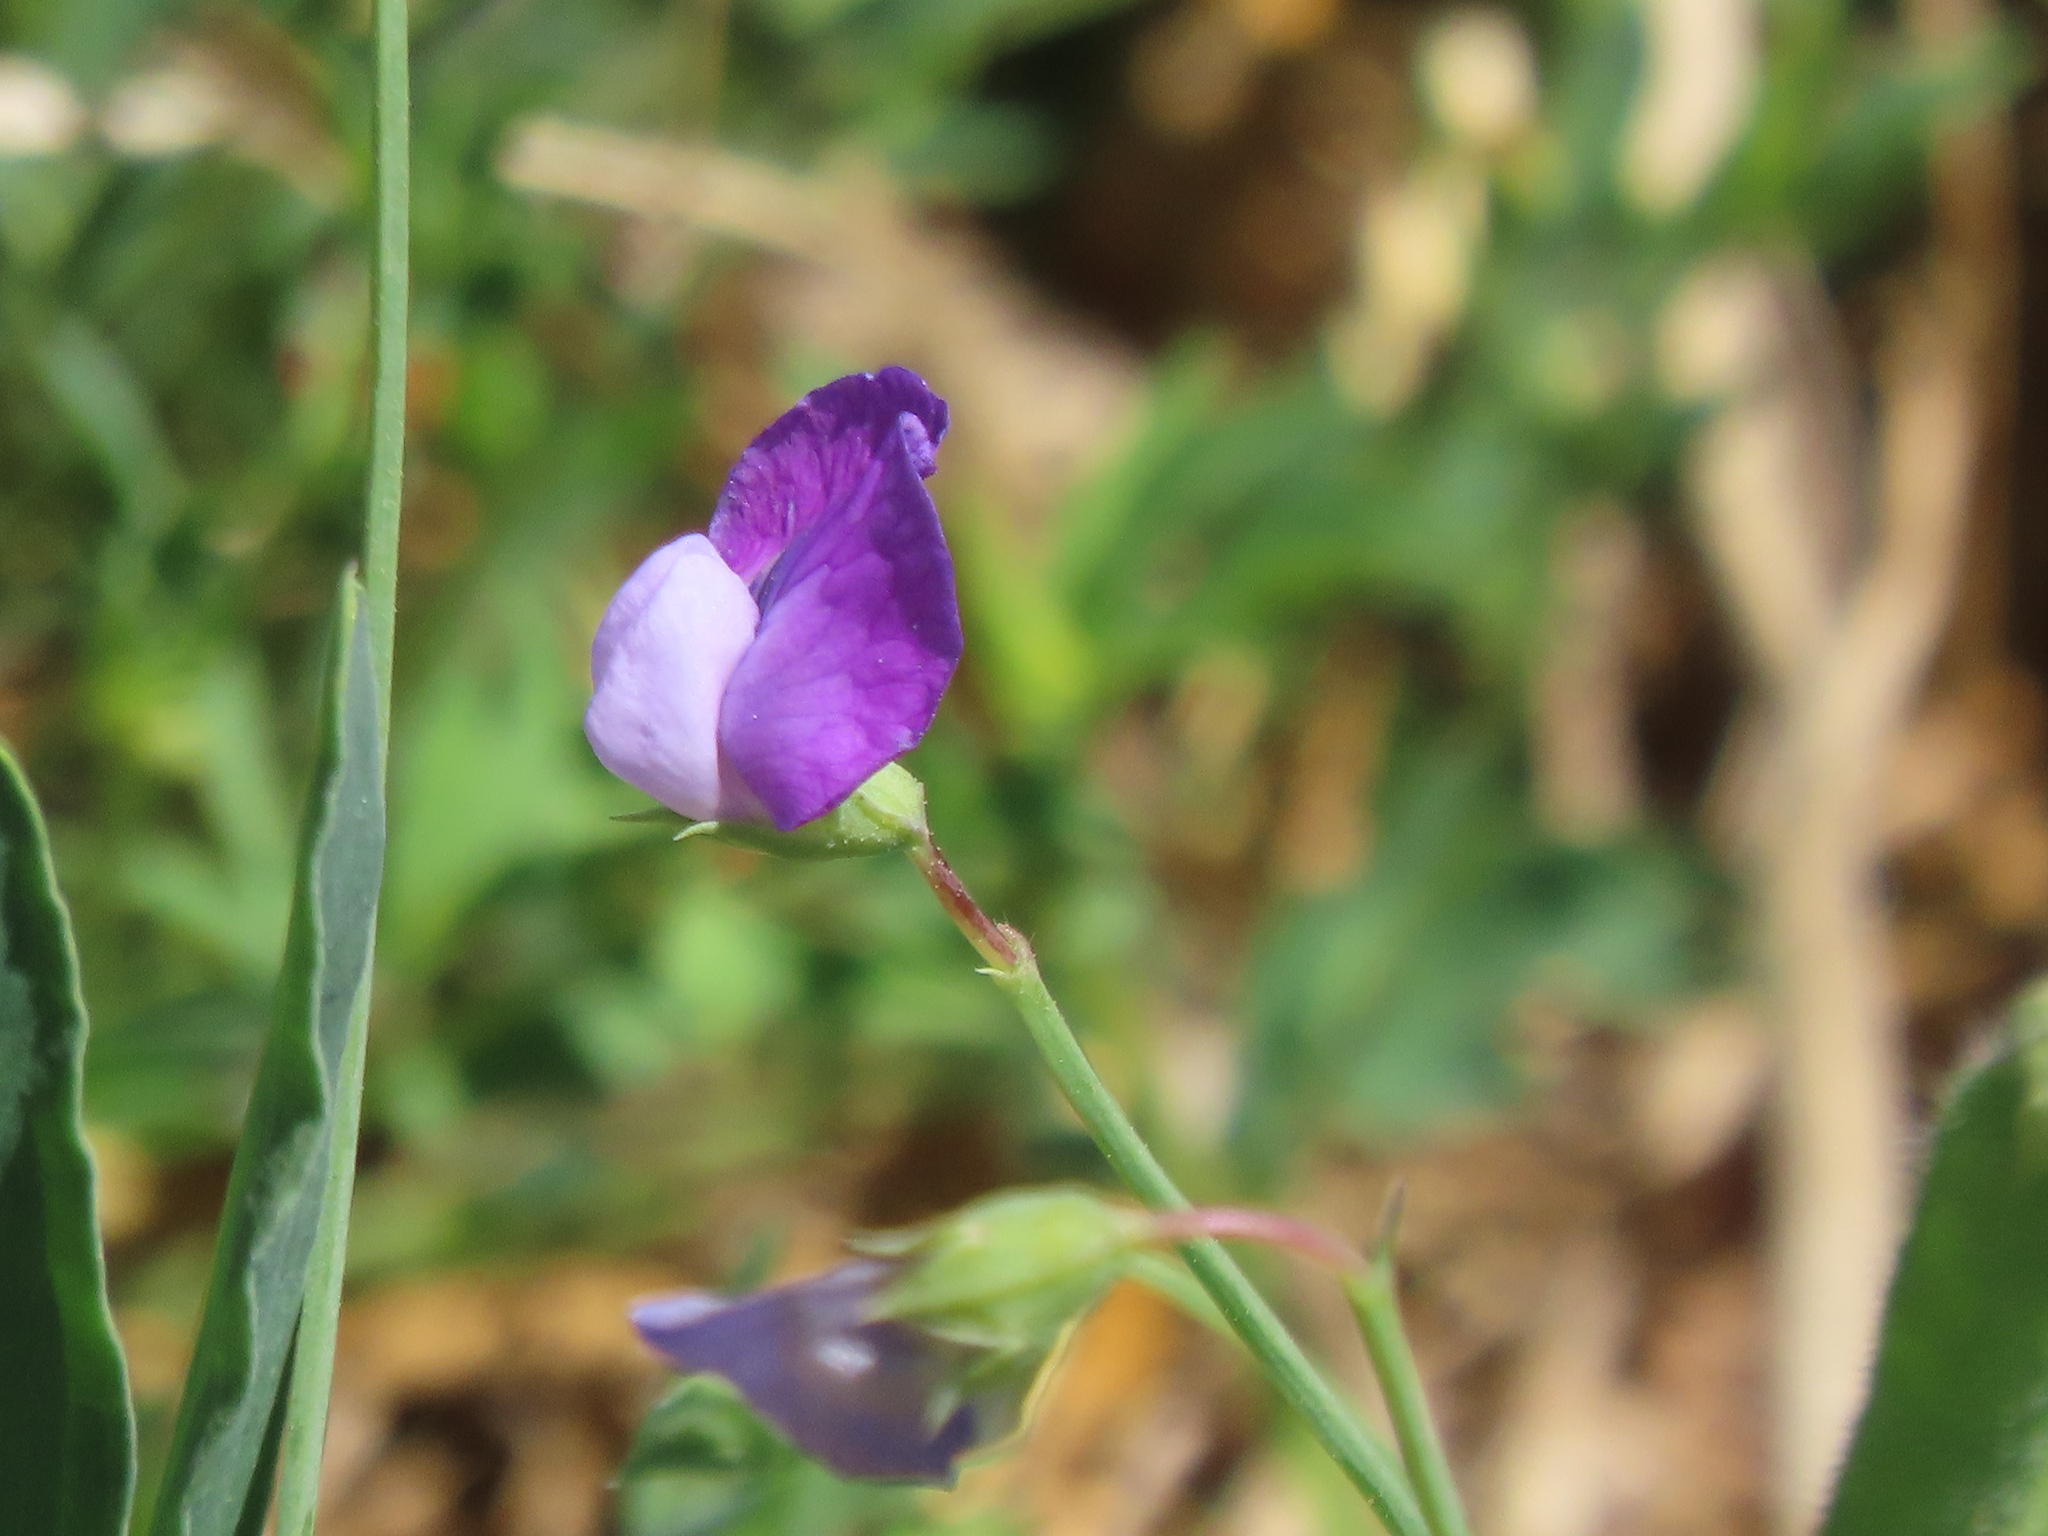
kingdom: Plantae
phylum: Tracheophyta
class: Magnoliopsida
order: Fabales
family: Fabaceae
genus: Lathyrus
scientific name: Lathyrus hirsutus
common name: Hairy vetchling
